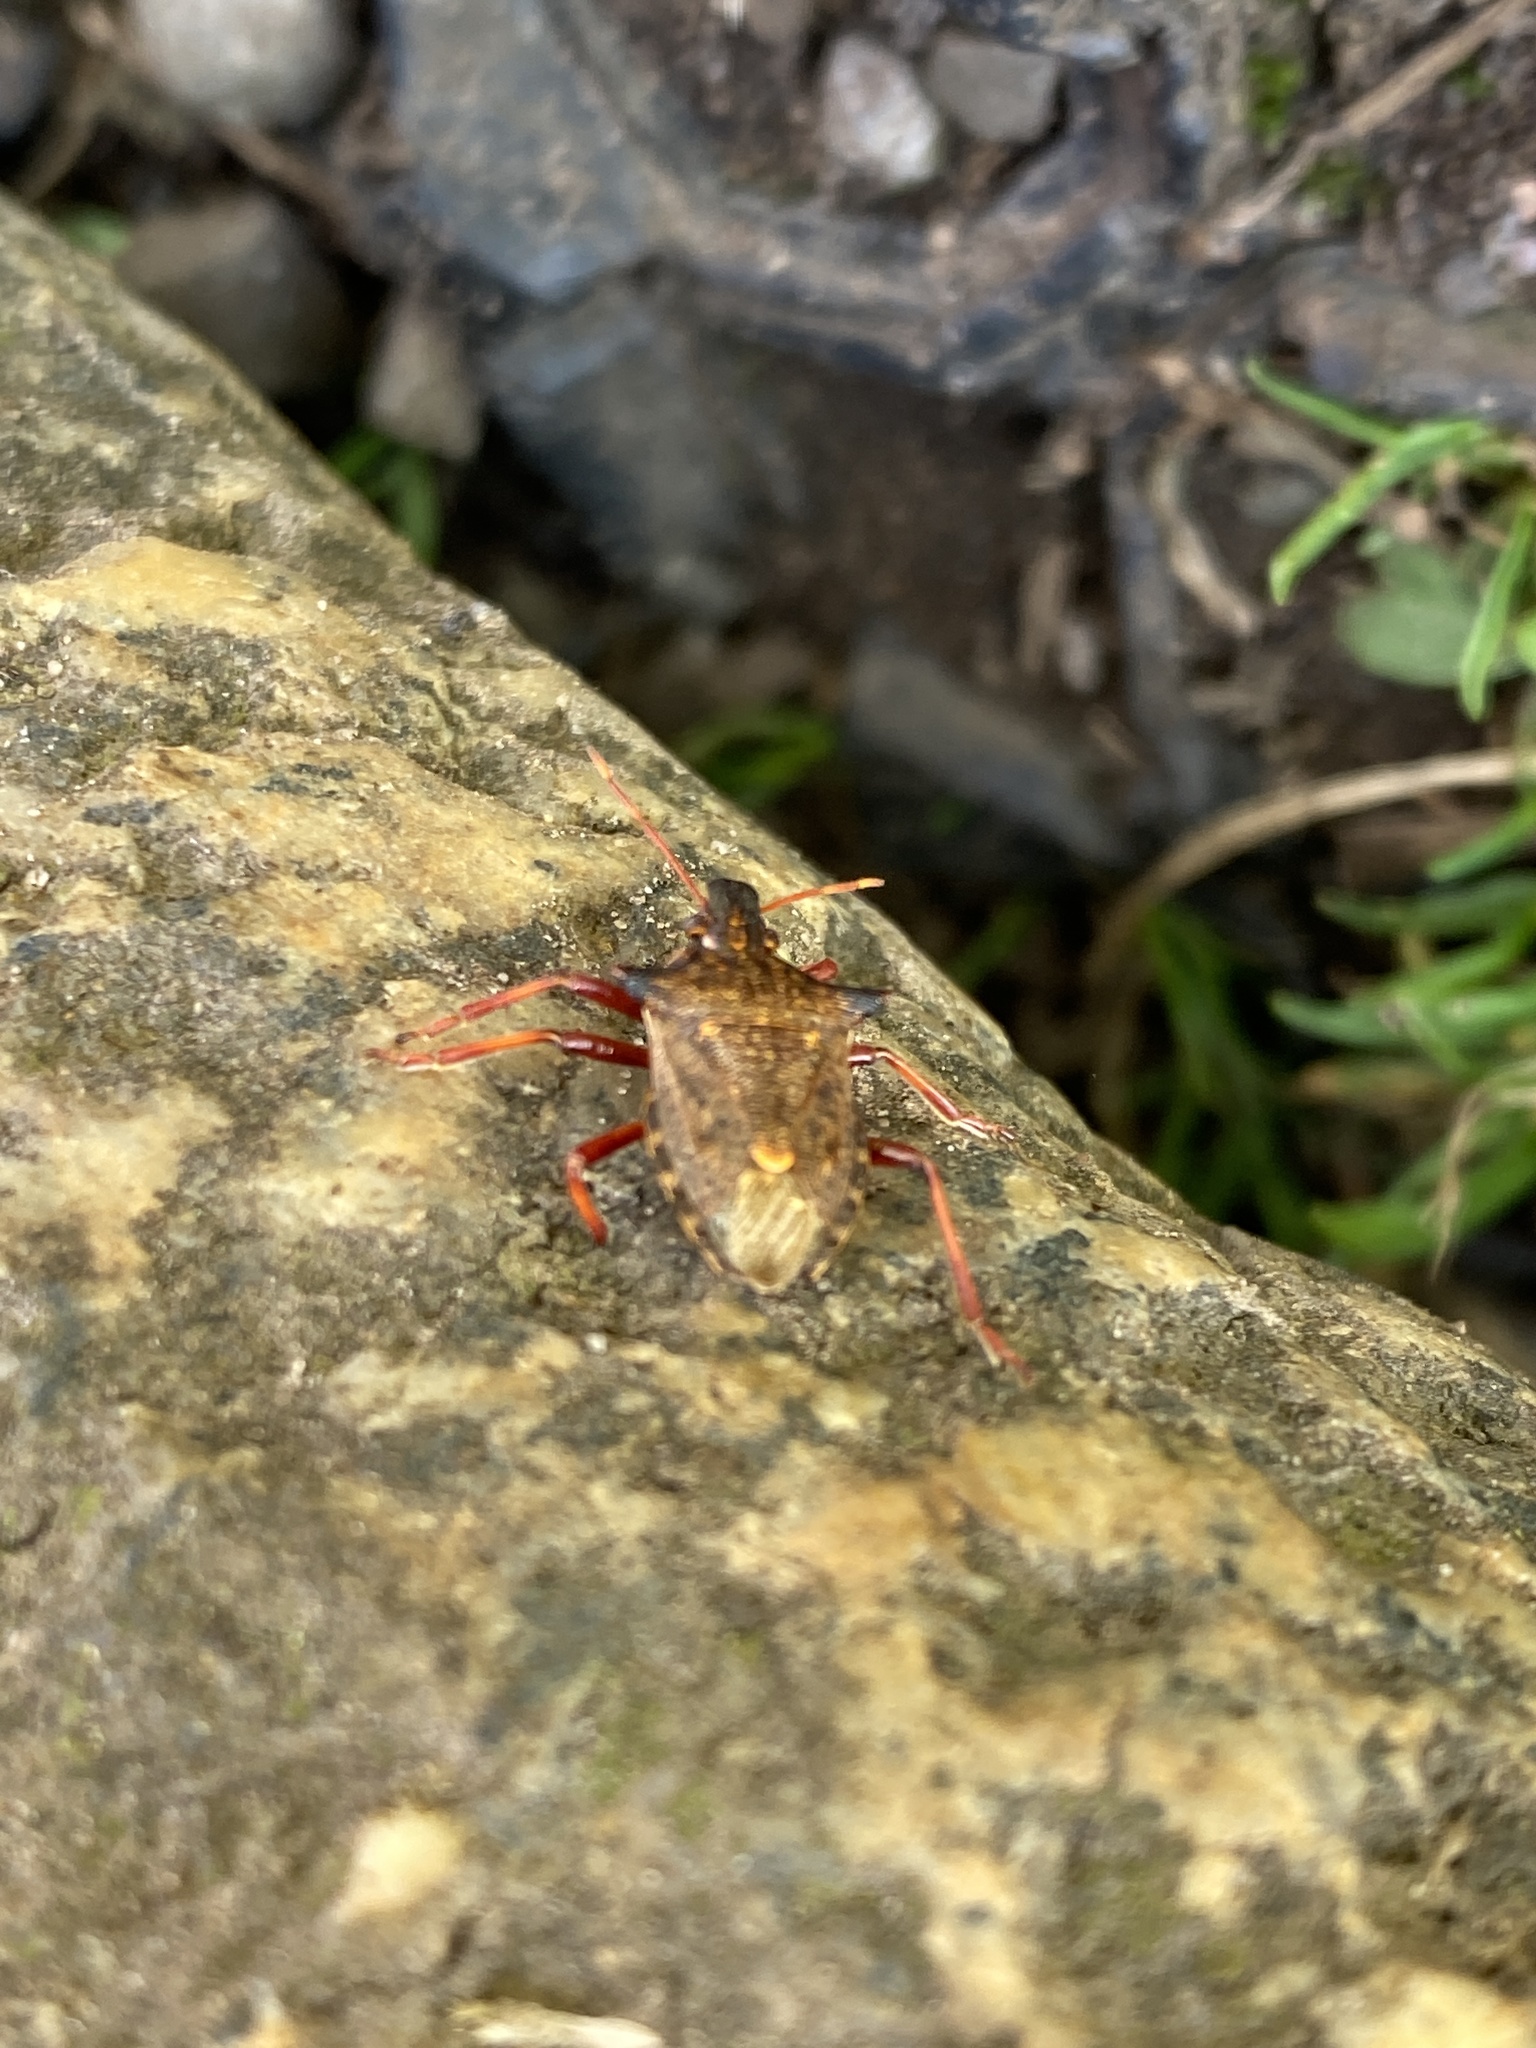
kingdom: Animalia
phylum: Arthropoda
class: Insecta
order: Hemiptera
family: Pentatomidae
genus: Picromerus
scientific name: Picromerus bidens
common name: Spiked shieldbug
